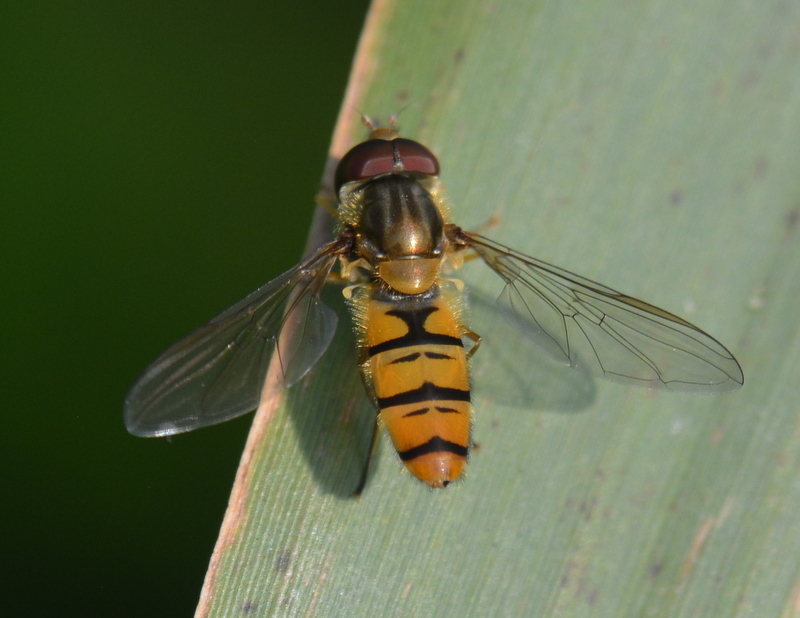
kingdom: Animalia
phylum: Arthropoda
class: Insecta
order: Diptera
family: Syrphidae
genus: Episyrphus
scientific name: Episyrphus balteatus
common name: Marmalade hoverfly
